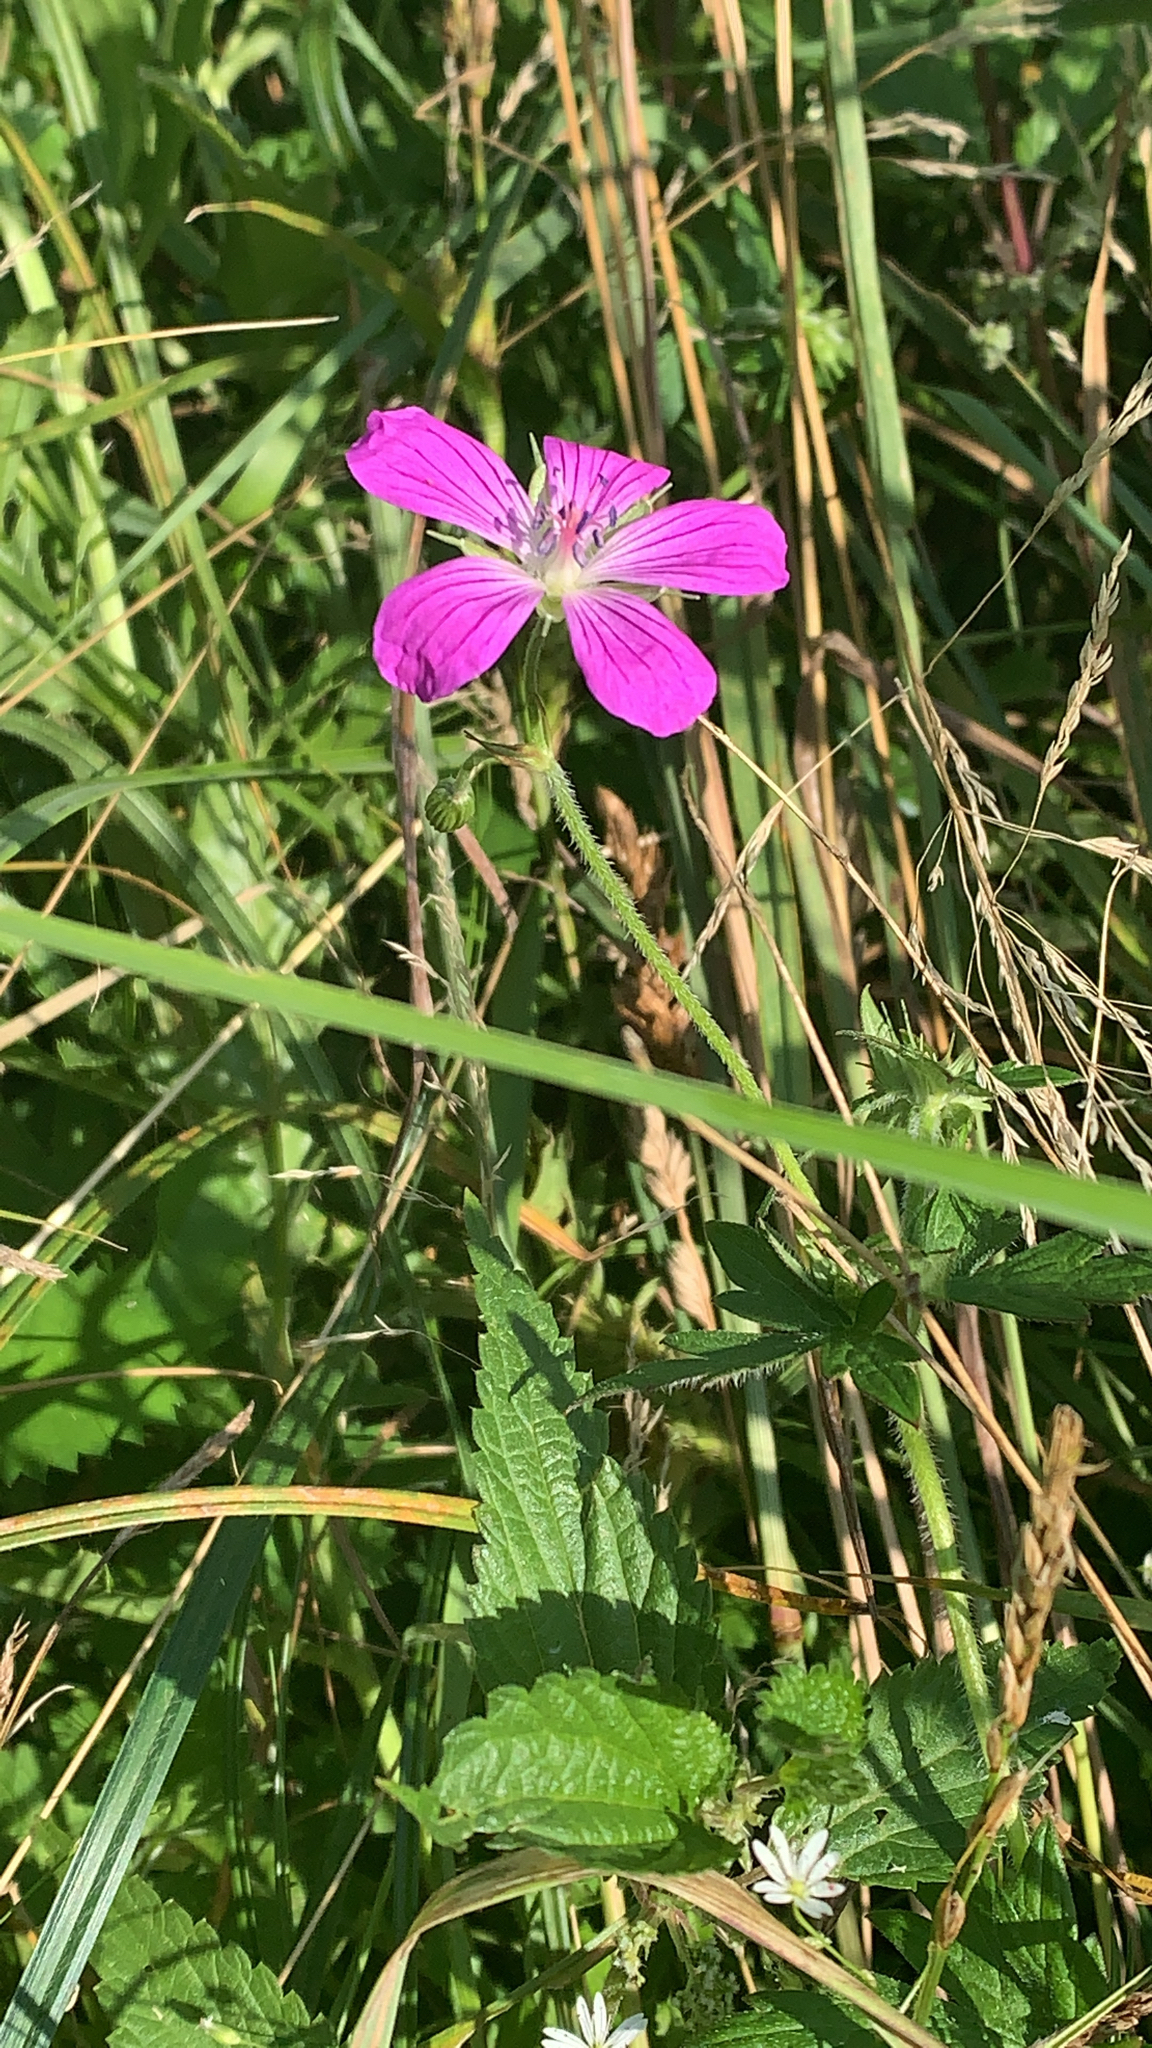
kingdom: Plantae
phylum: Tracheophyta
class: Magnoliopsida
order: Geraniales
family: Geraniaceae
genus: Geranium
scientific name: Geranium palustre
